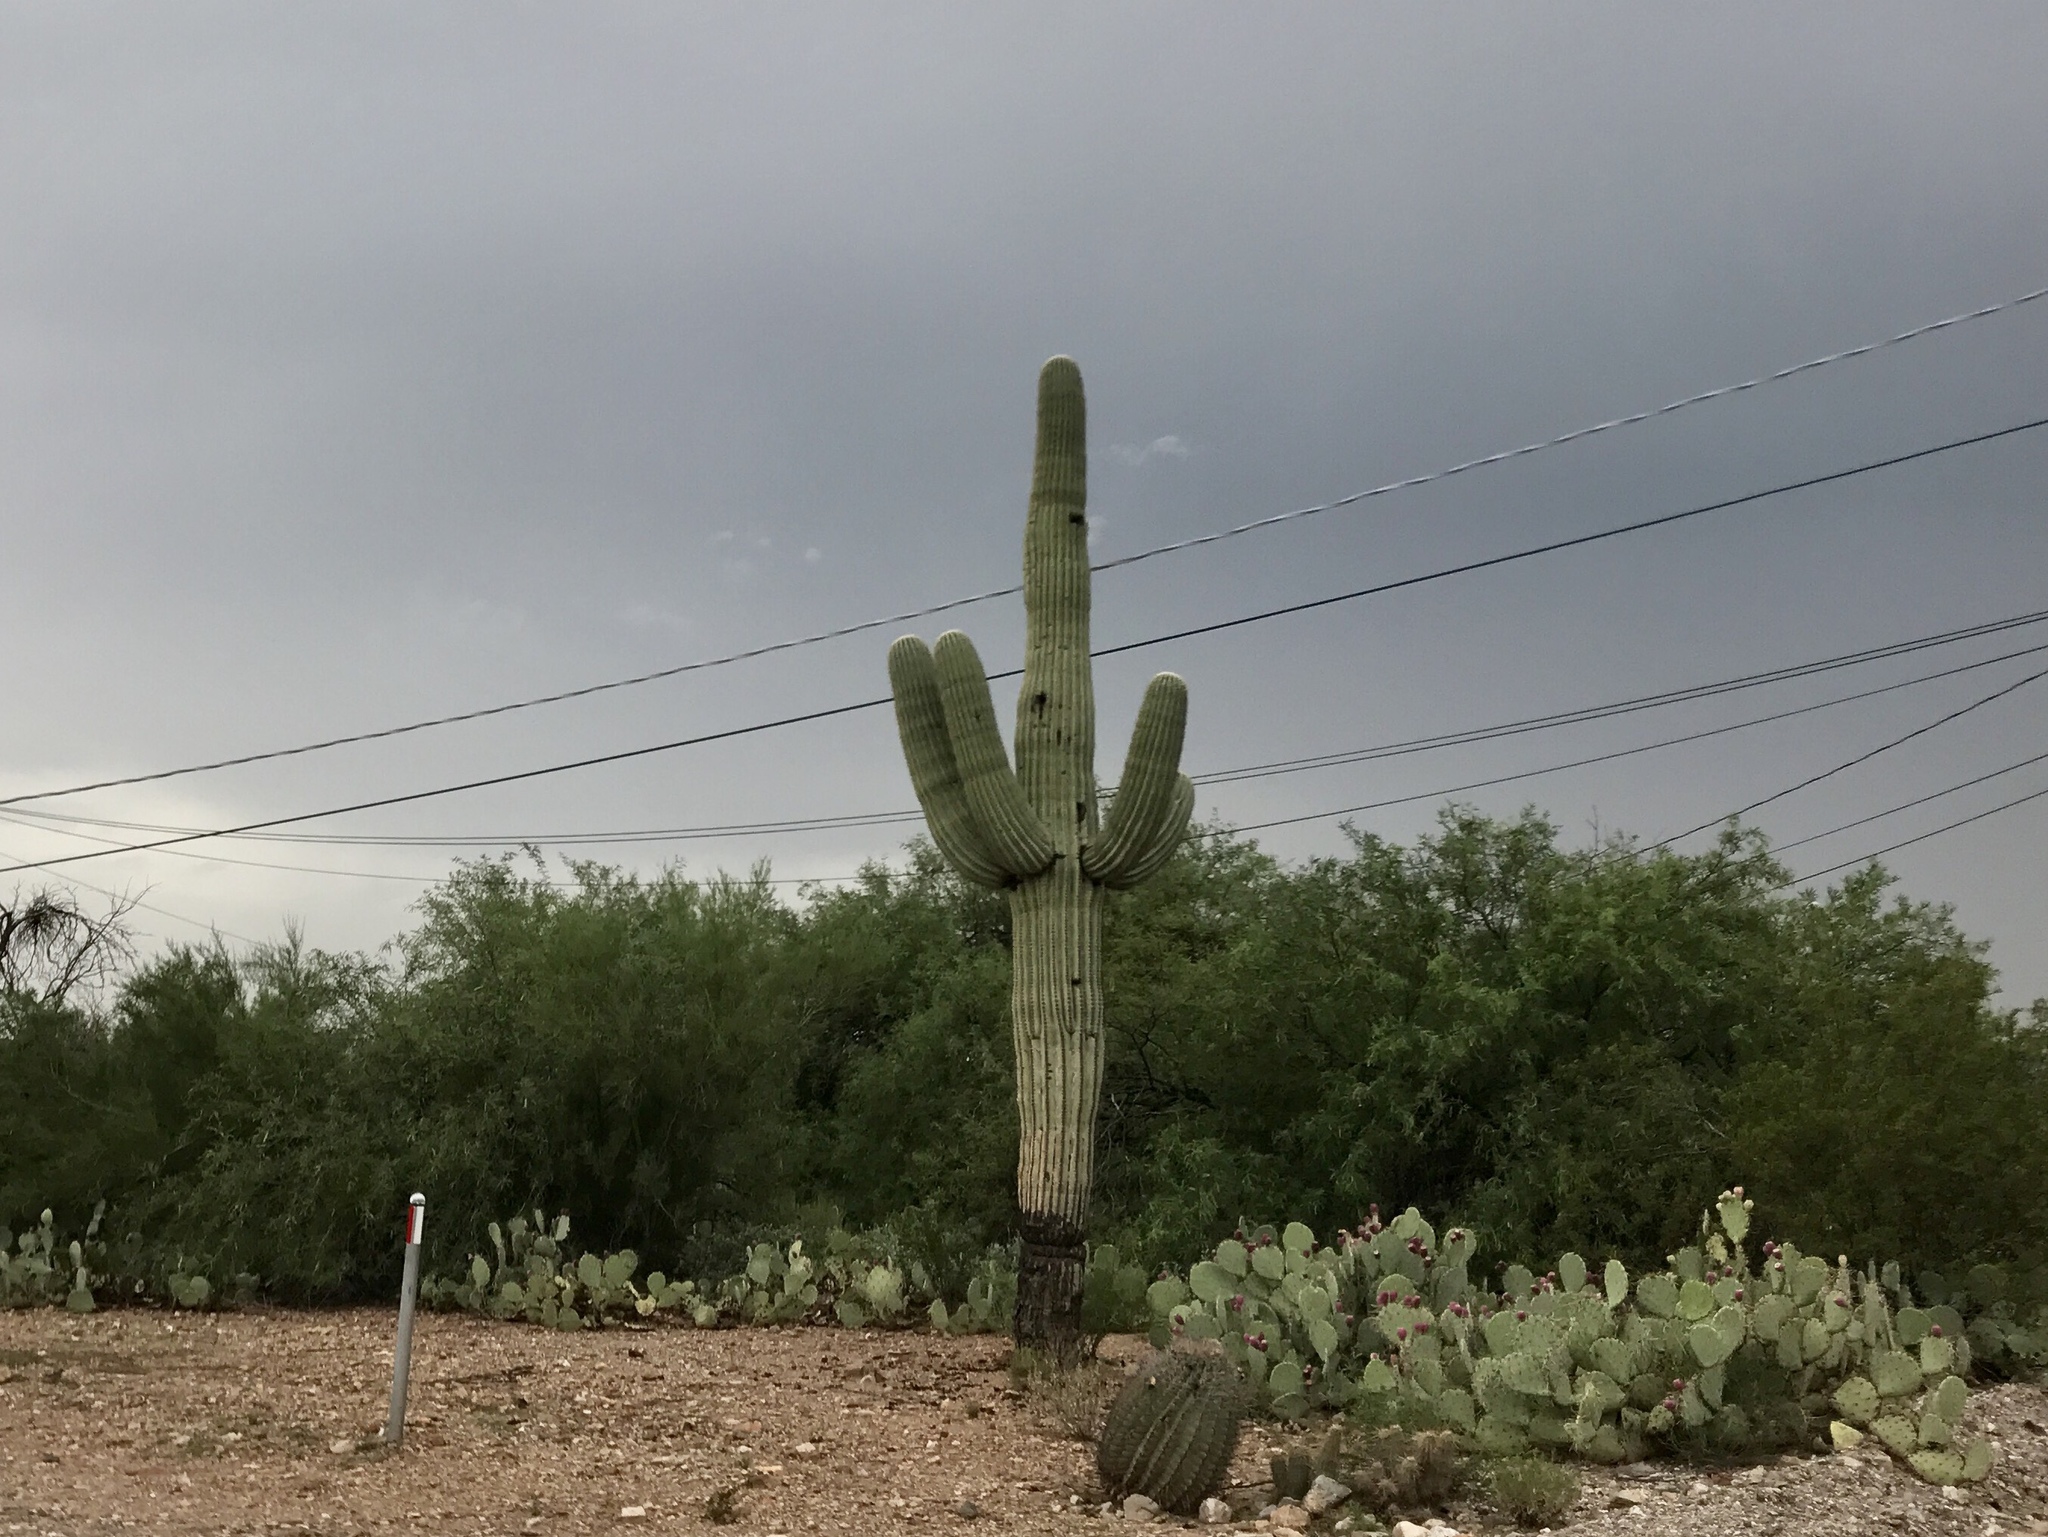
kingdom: Plantae
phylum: Tracheophyta
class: Magnoliopsida
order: Caryophyllales
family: Cactaceae
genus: Carnegiea
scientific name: Carnegiea gigantea
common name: Saguaro
